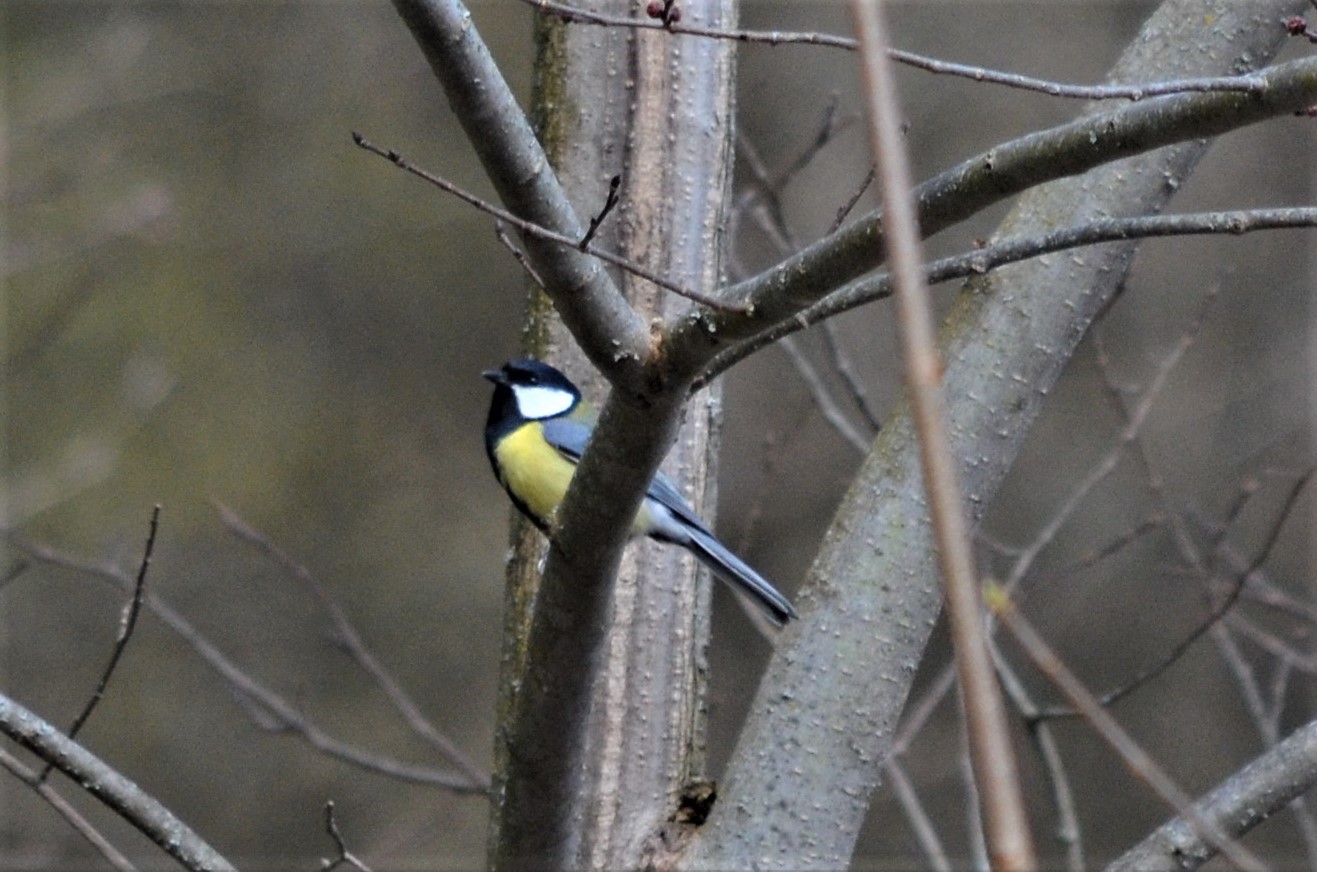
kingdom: Animalia
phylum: Chordata
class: Aves
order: Passeriformes
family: Paridae
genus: Parus
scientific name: Parus major
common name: Great tit
